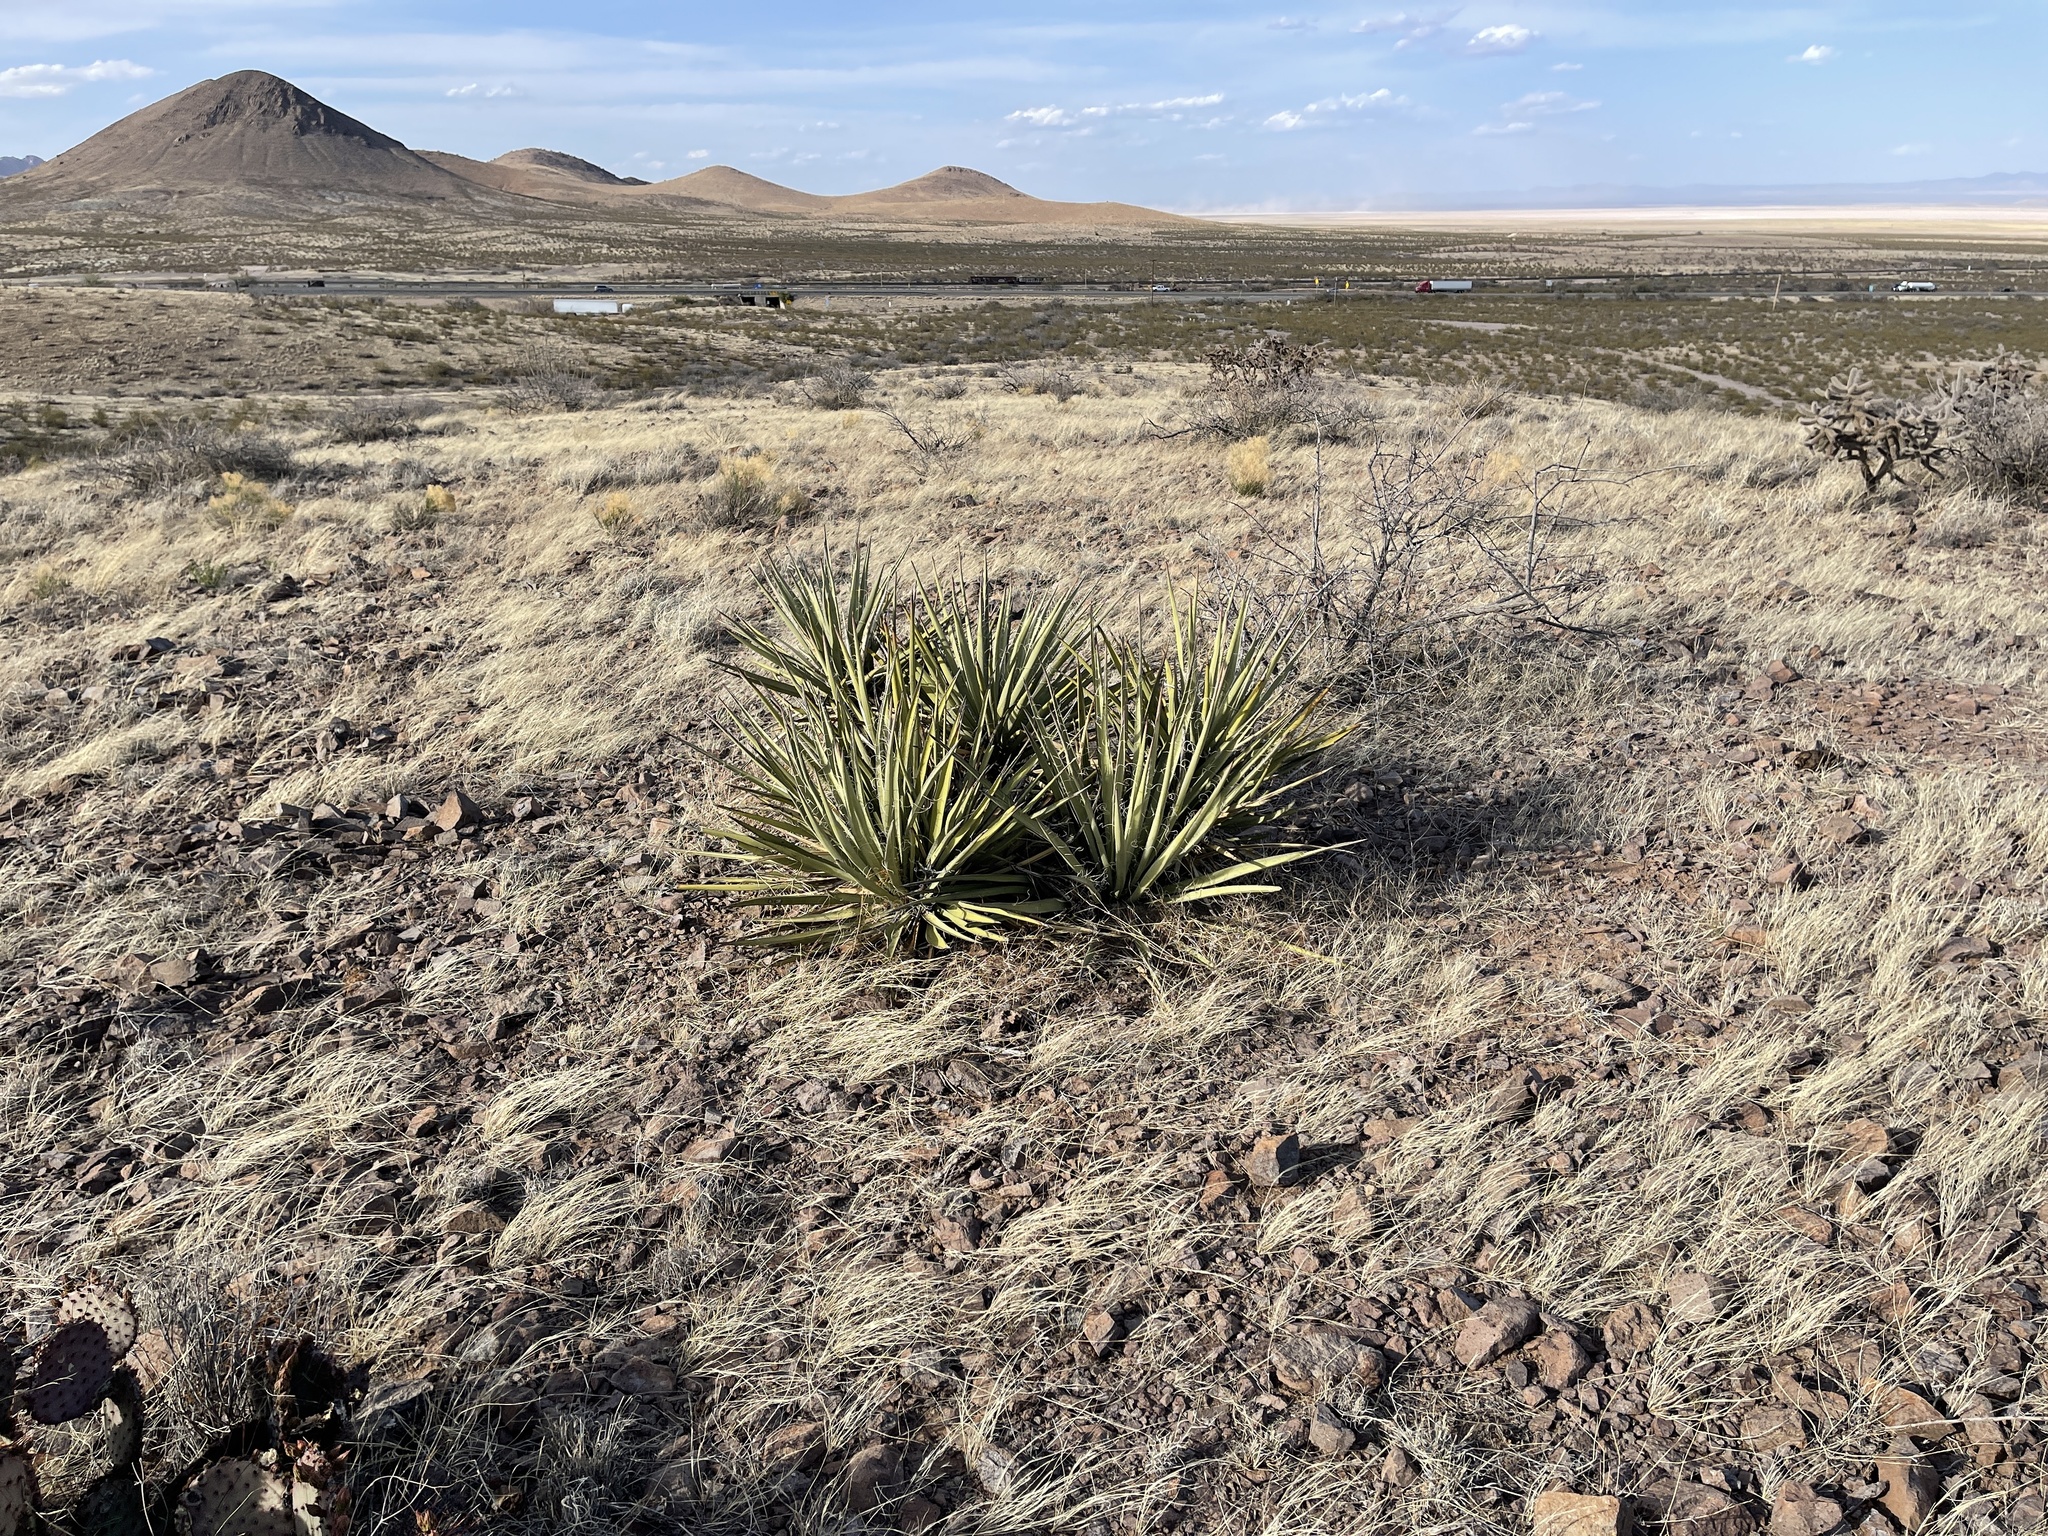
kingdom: Plantae
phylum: Tracheophyta
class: Liliopsida
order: Asparagales
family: Asparagaceae
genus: Yucca
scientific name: Yucca baccata
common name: Banana yucca
